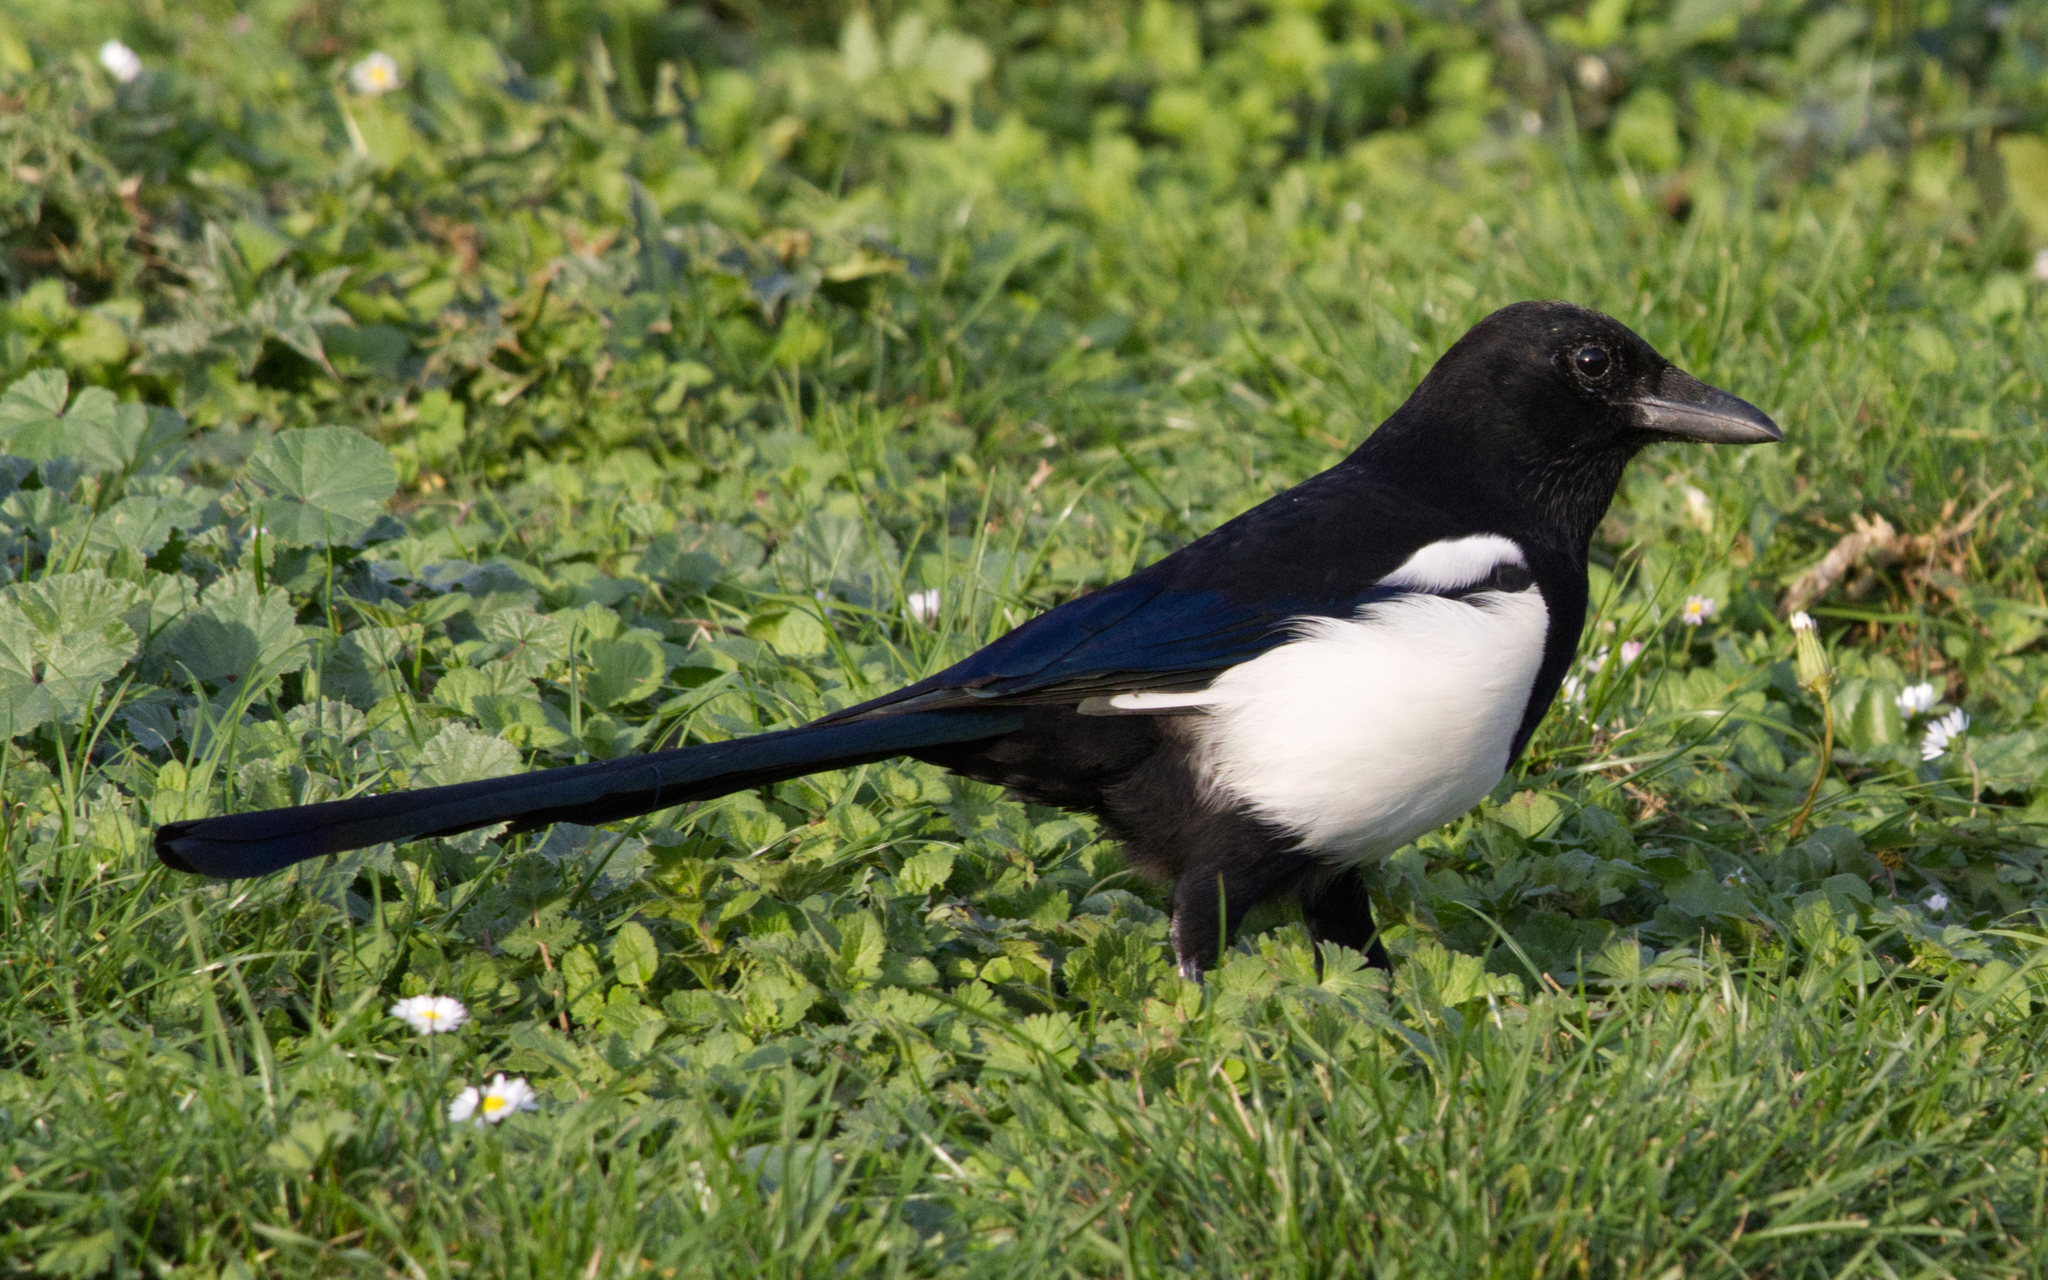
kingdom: Animalia
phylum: Chordata
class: Aves
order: Passeriformes
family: Corvidae
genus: Pica
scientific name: Pica pica
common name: Eurasian magpie
